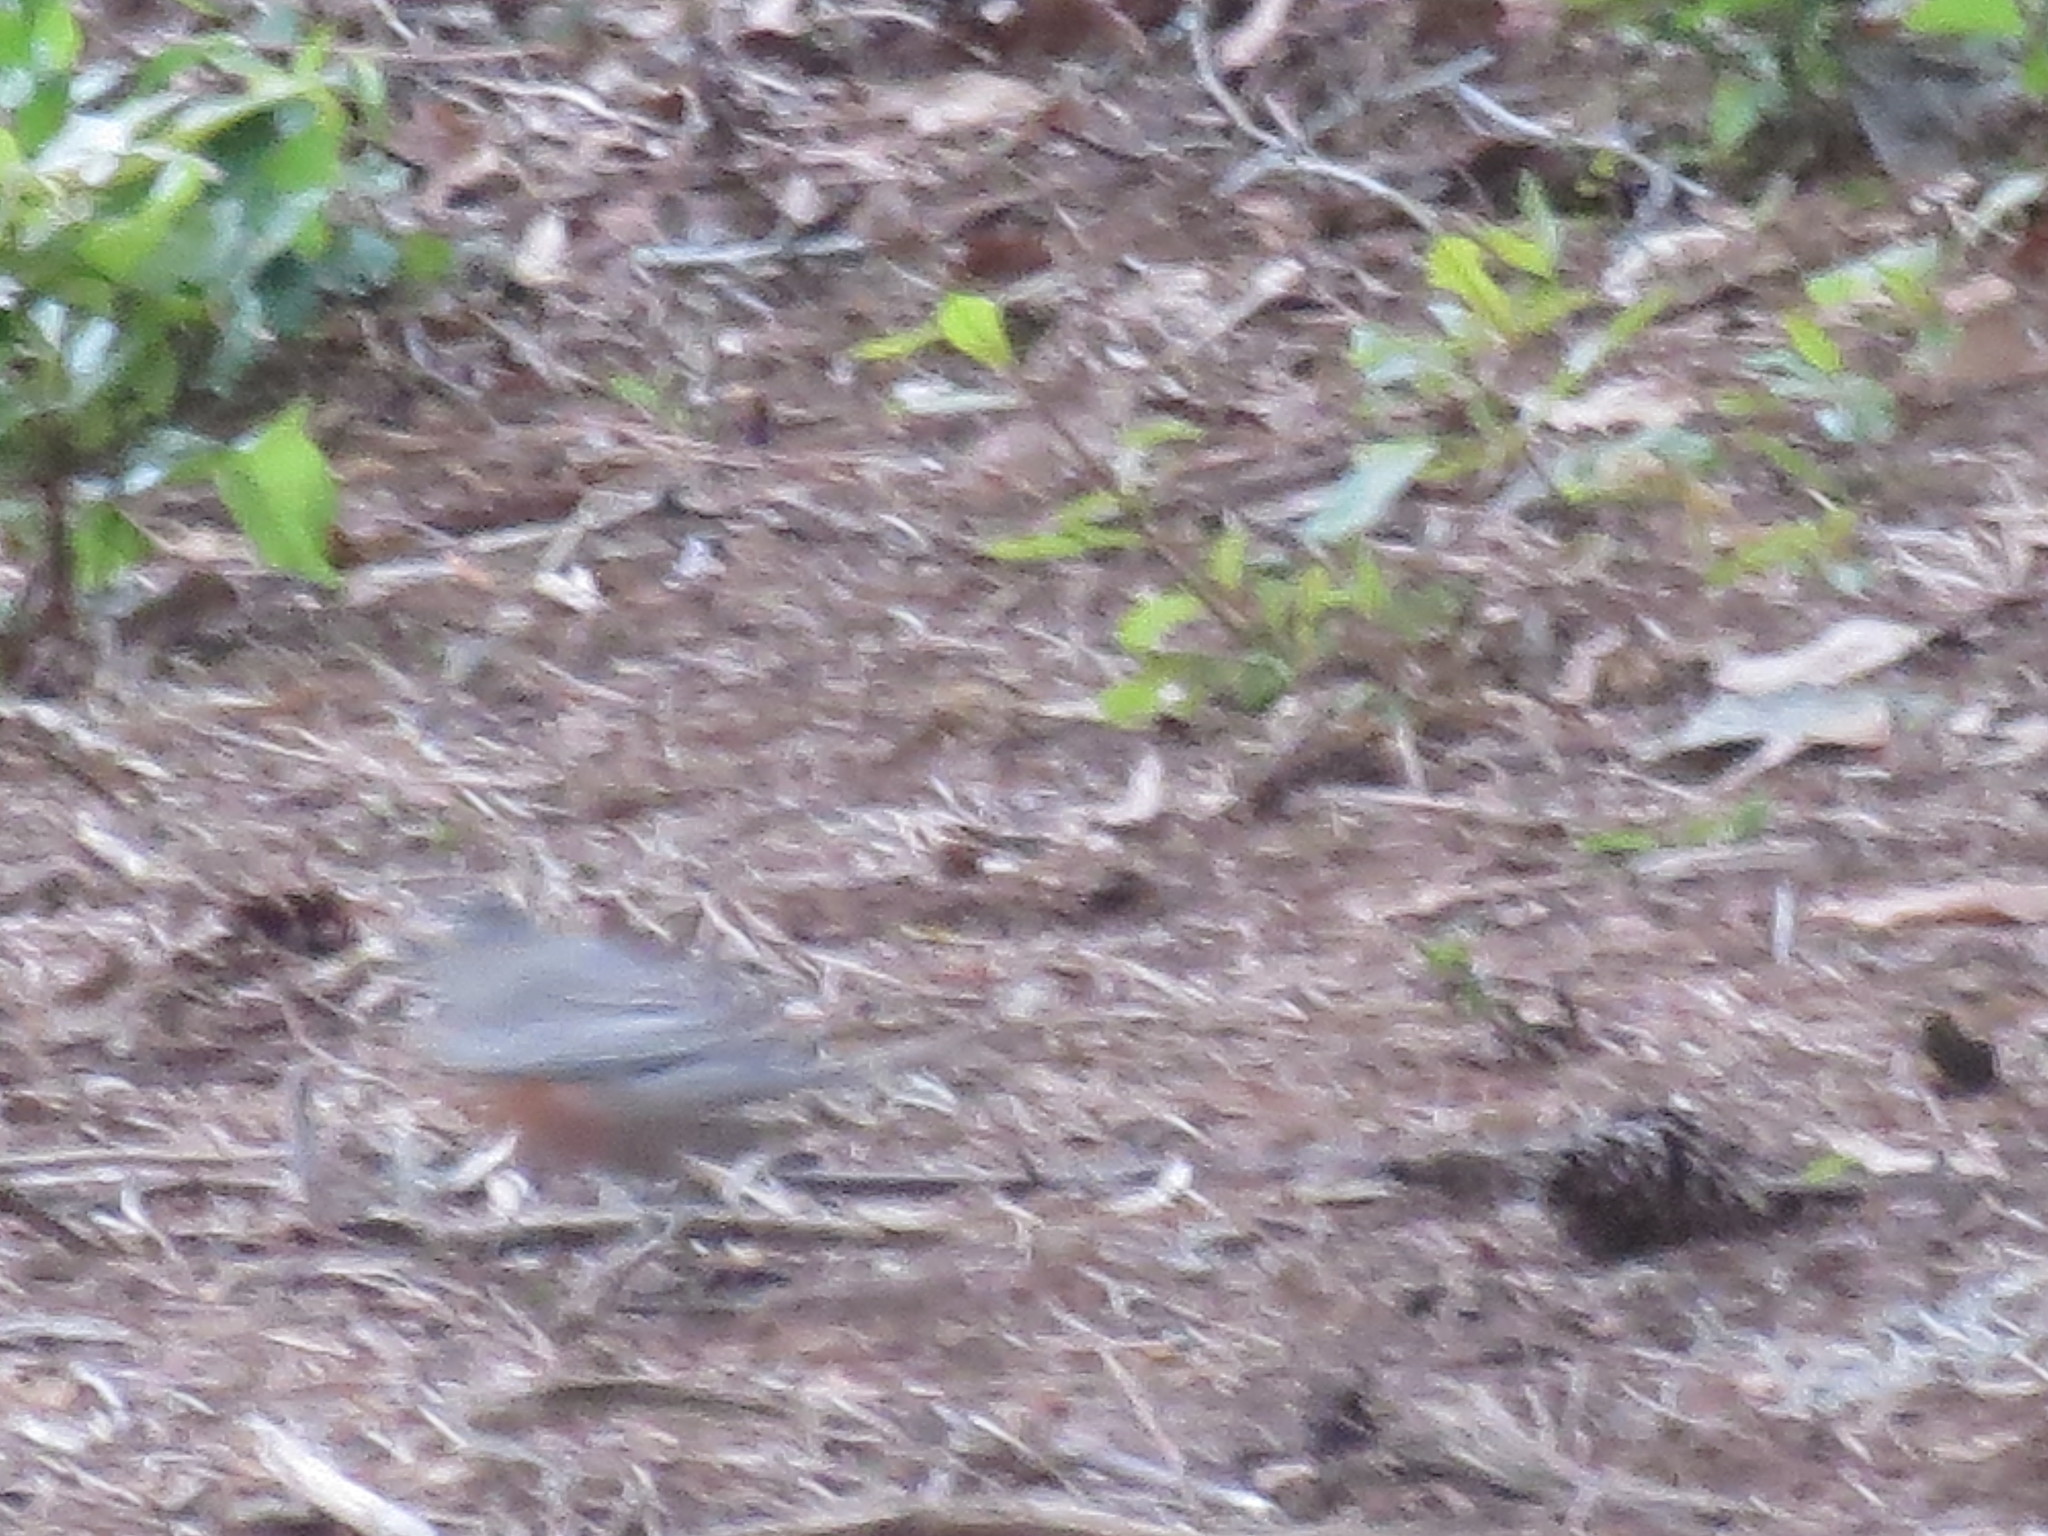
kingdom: Animalia
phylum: Chordata
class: Aves
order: Passeriformes
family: Turdidae
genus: Turdus
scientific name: Turdus migratorius
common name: American robin
